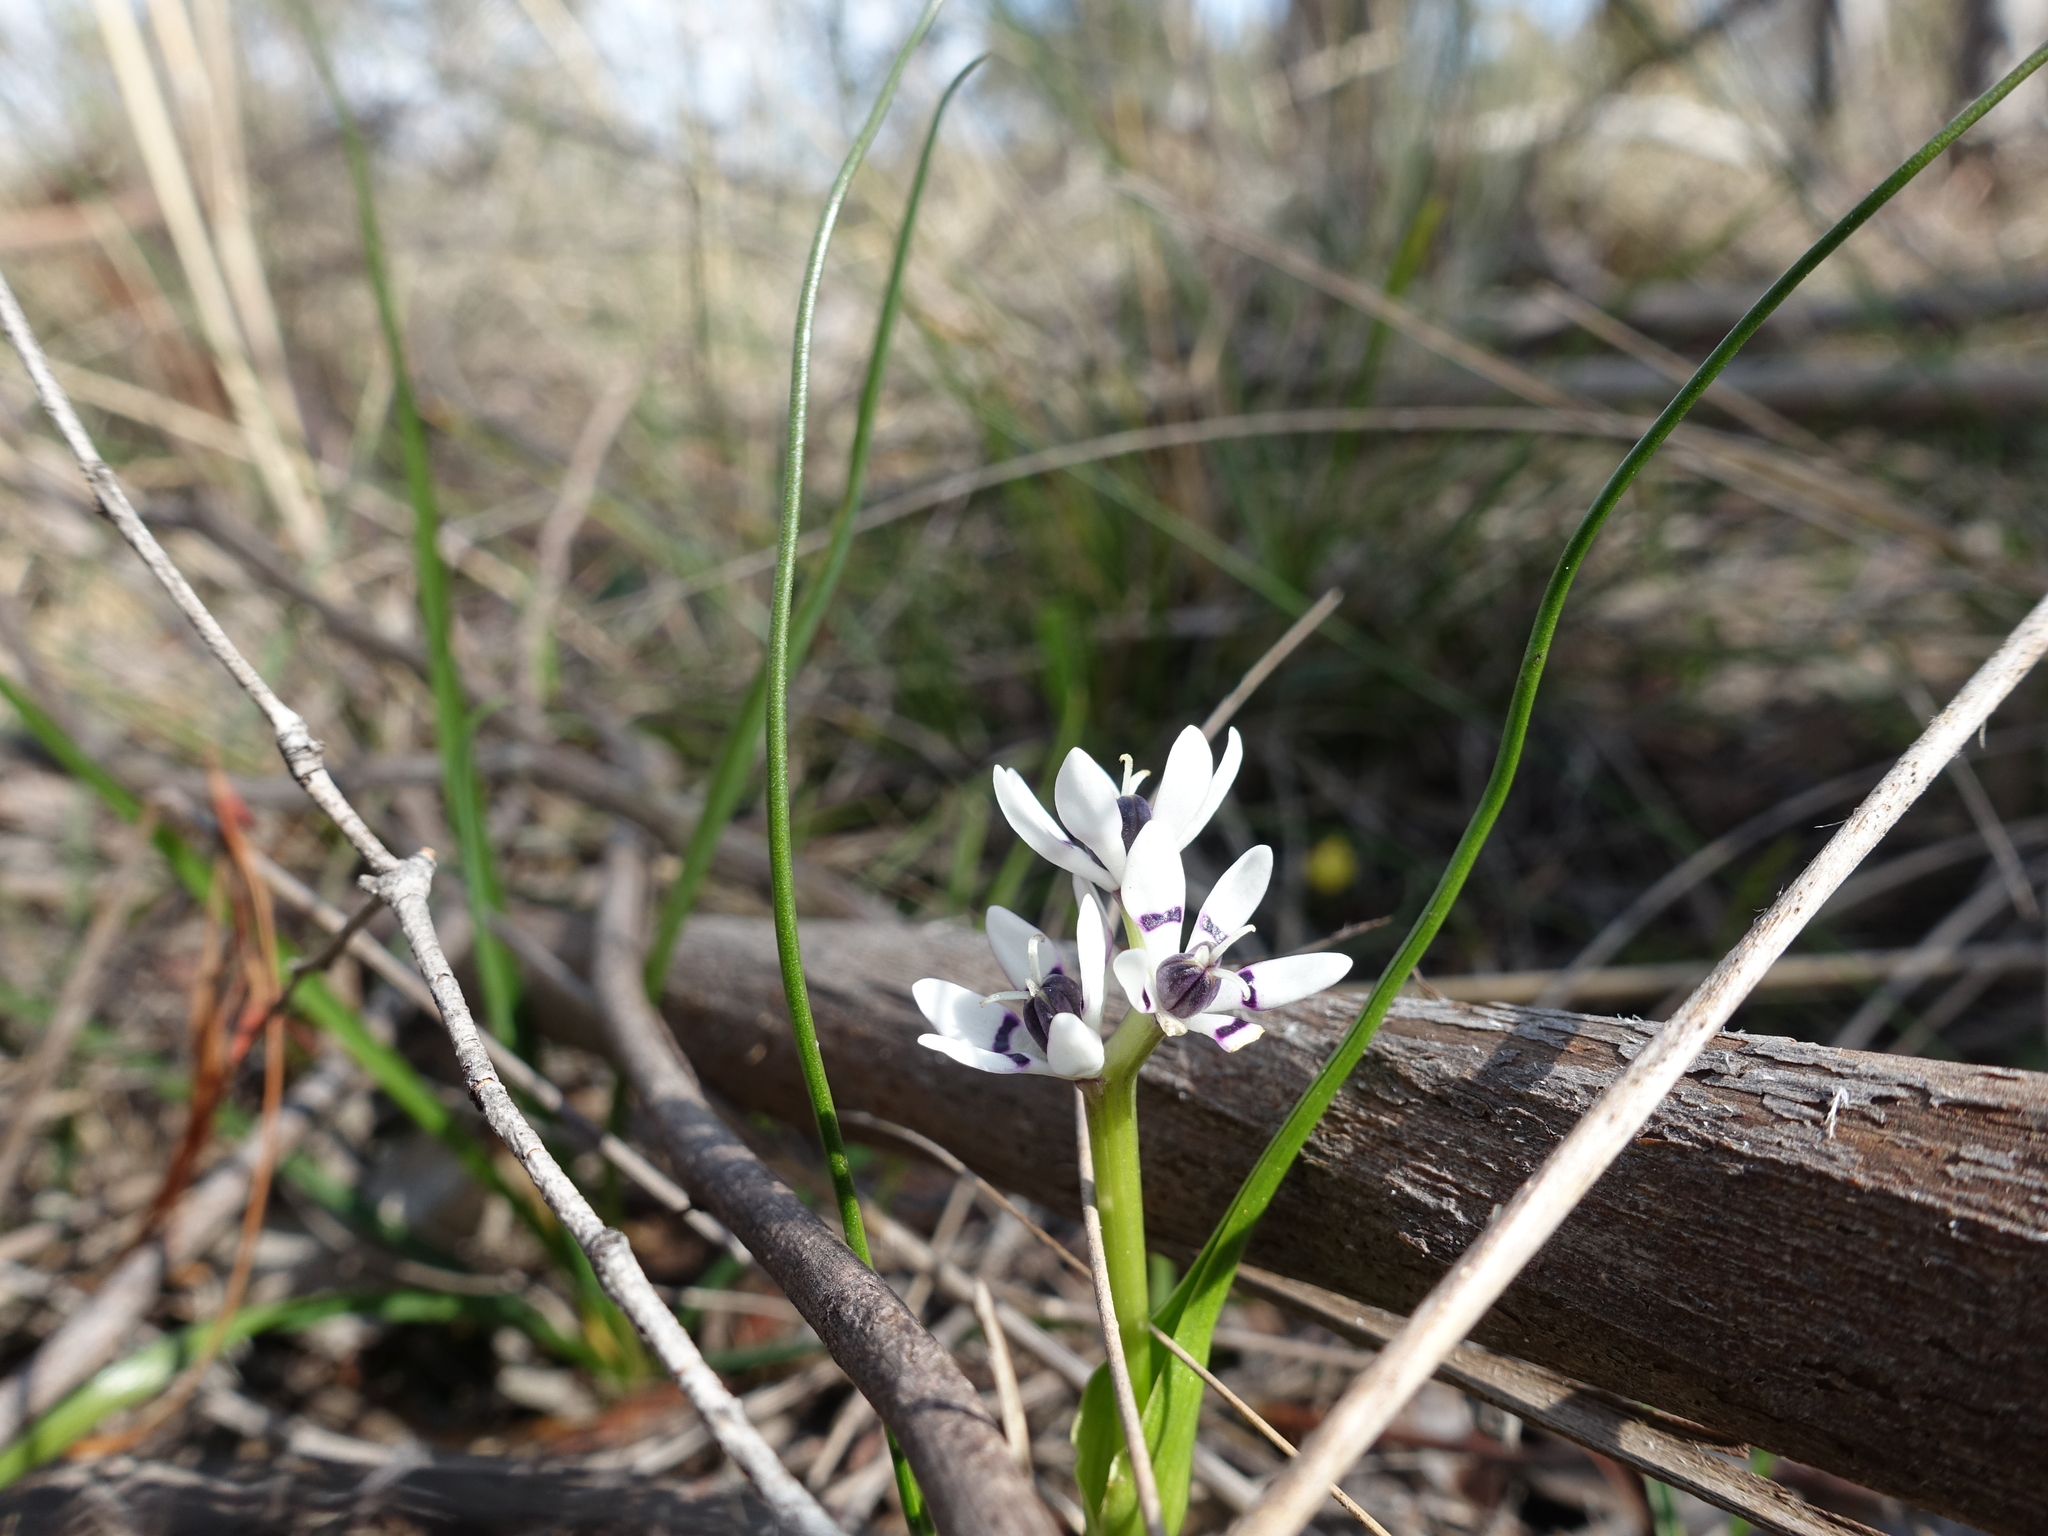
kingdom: Plantae
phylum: Tracheophyta
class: Liliopsida
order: Liliales
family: Colchicaceae
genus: Wurmbea
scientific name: Wurmbea dioica
